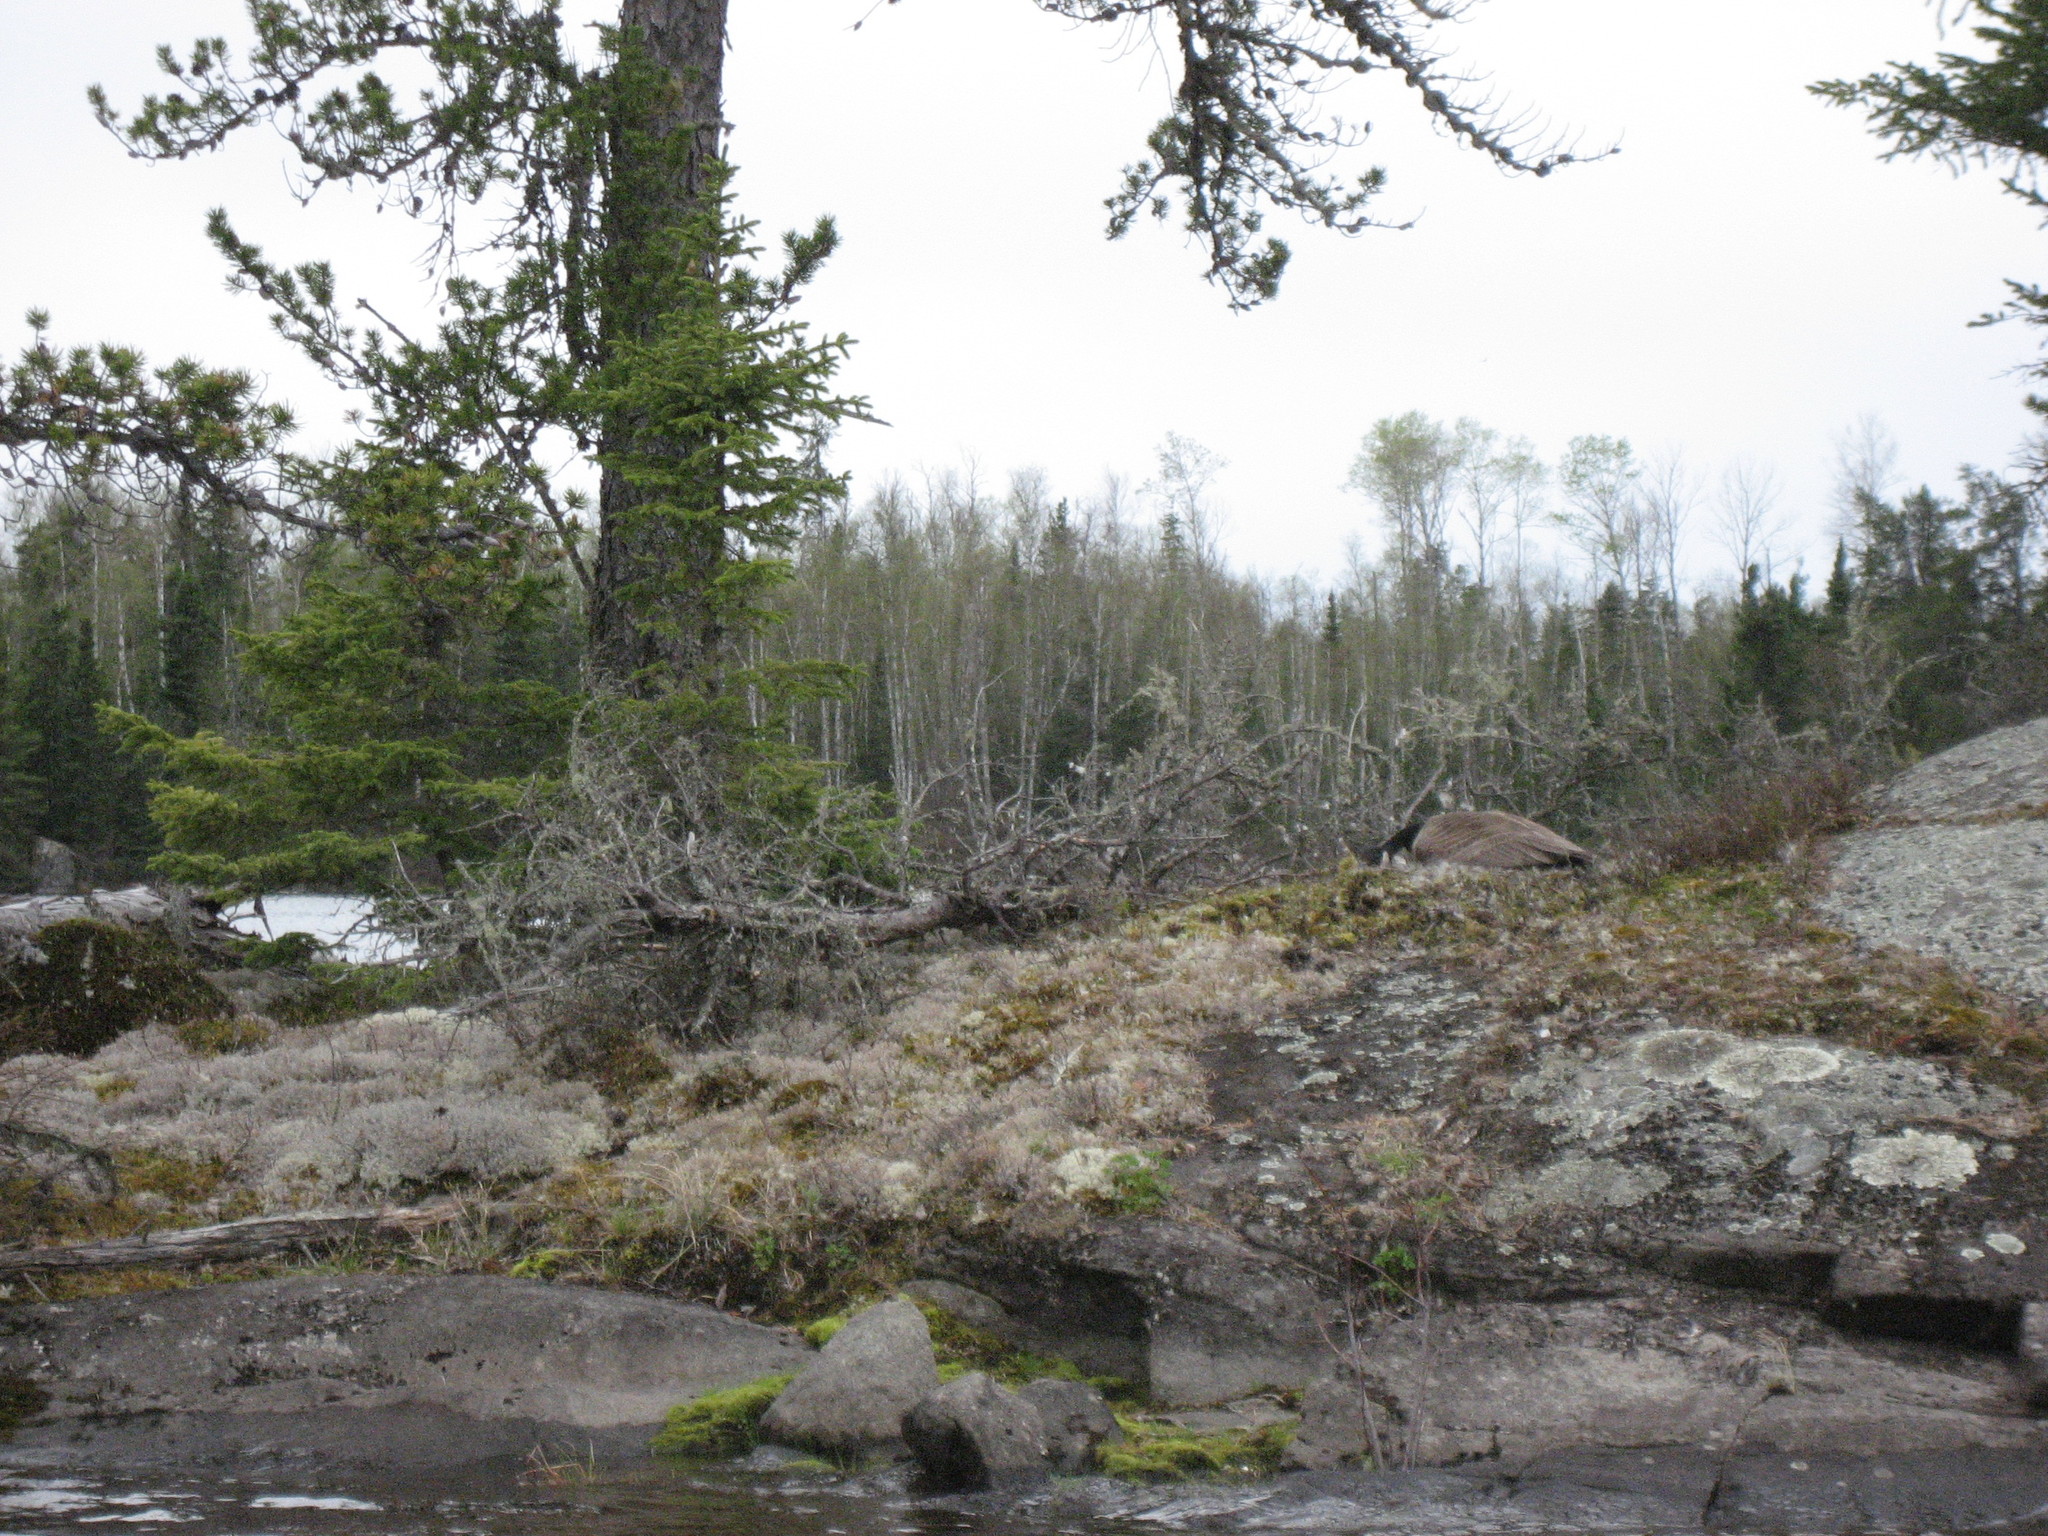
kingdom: Animalia
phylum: Chordata
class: Aves
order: Anseriformes
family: Anatidae
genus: Branta
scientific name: Branta canadensis
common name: Canada goose
